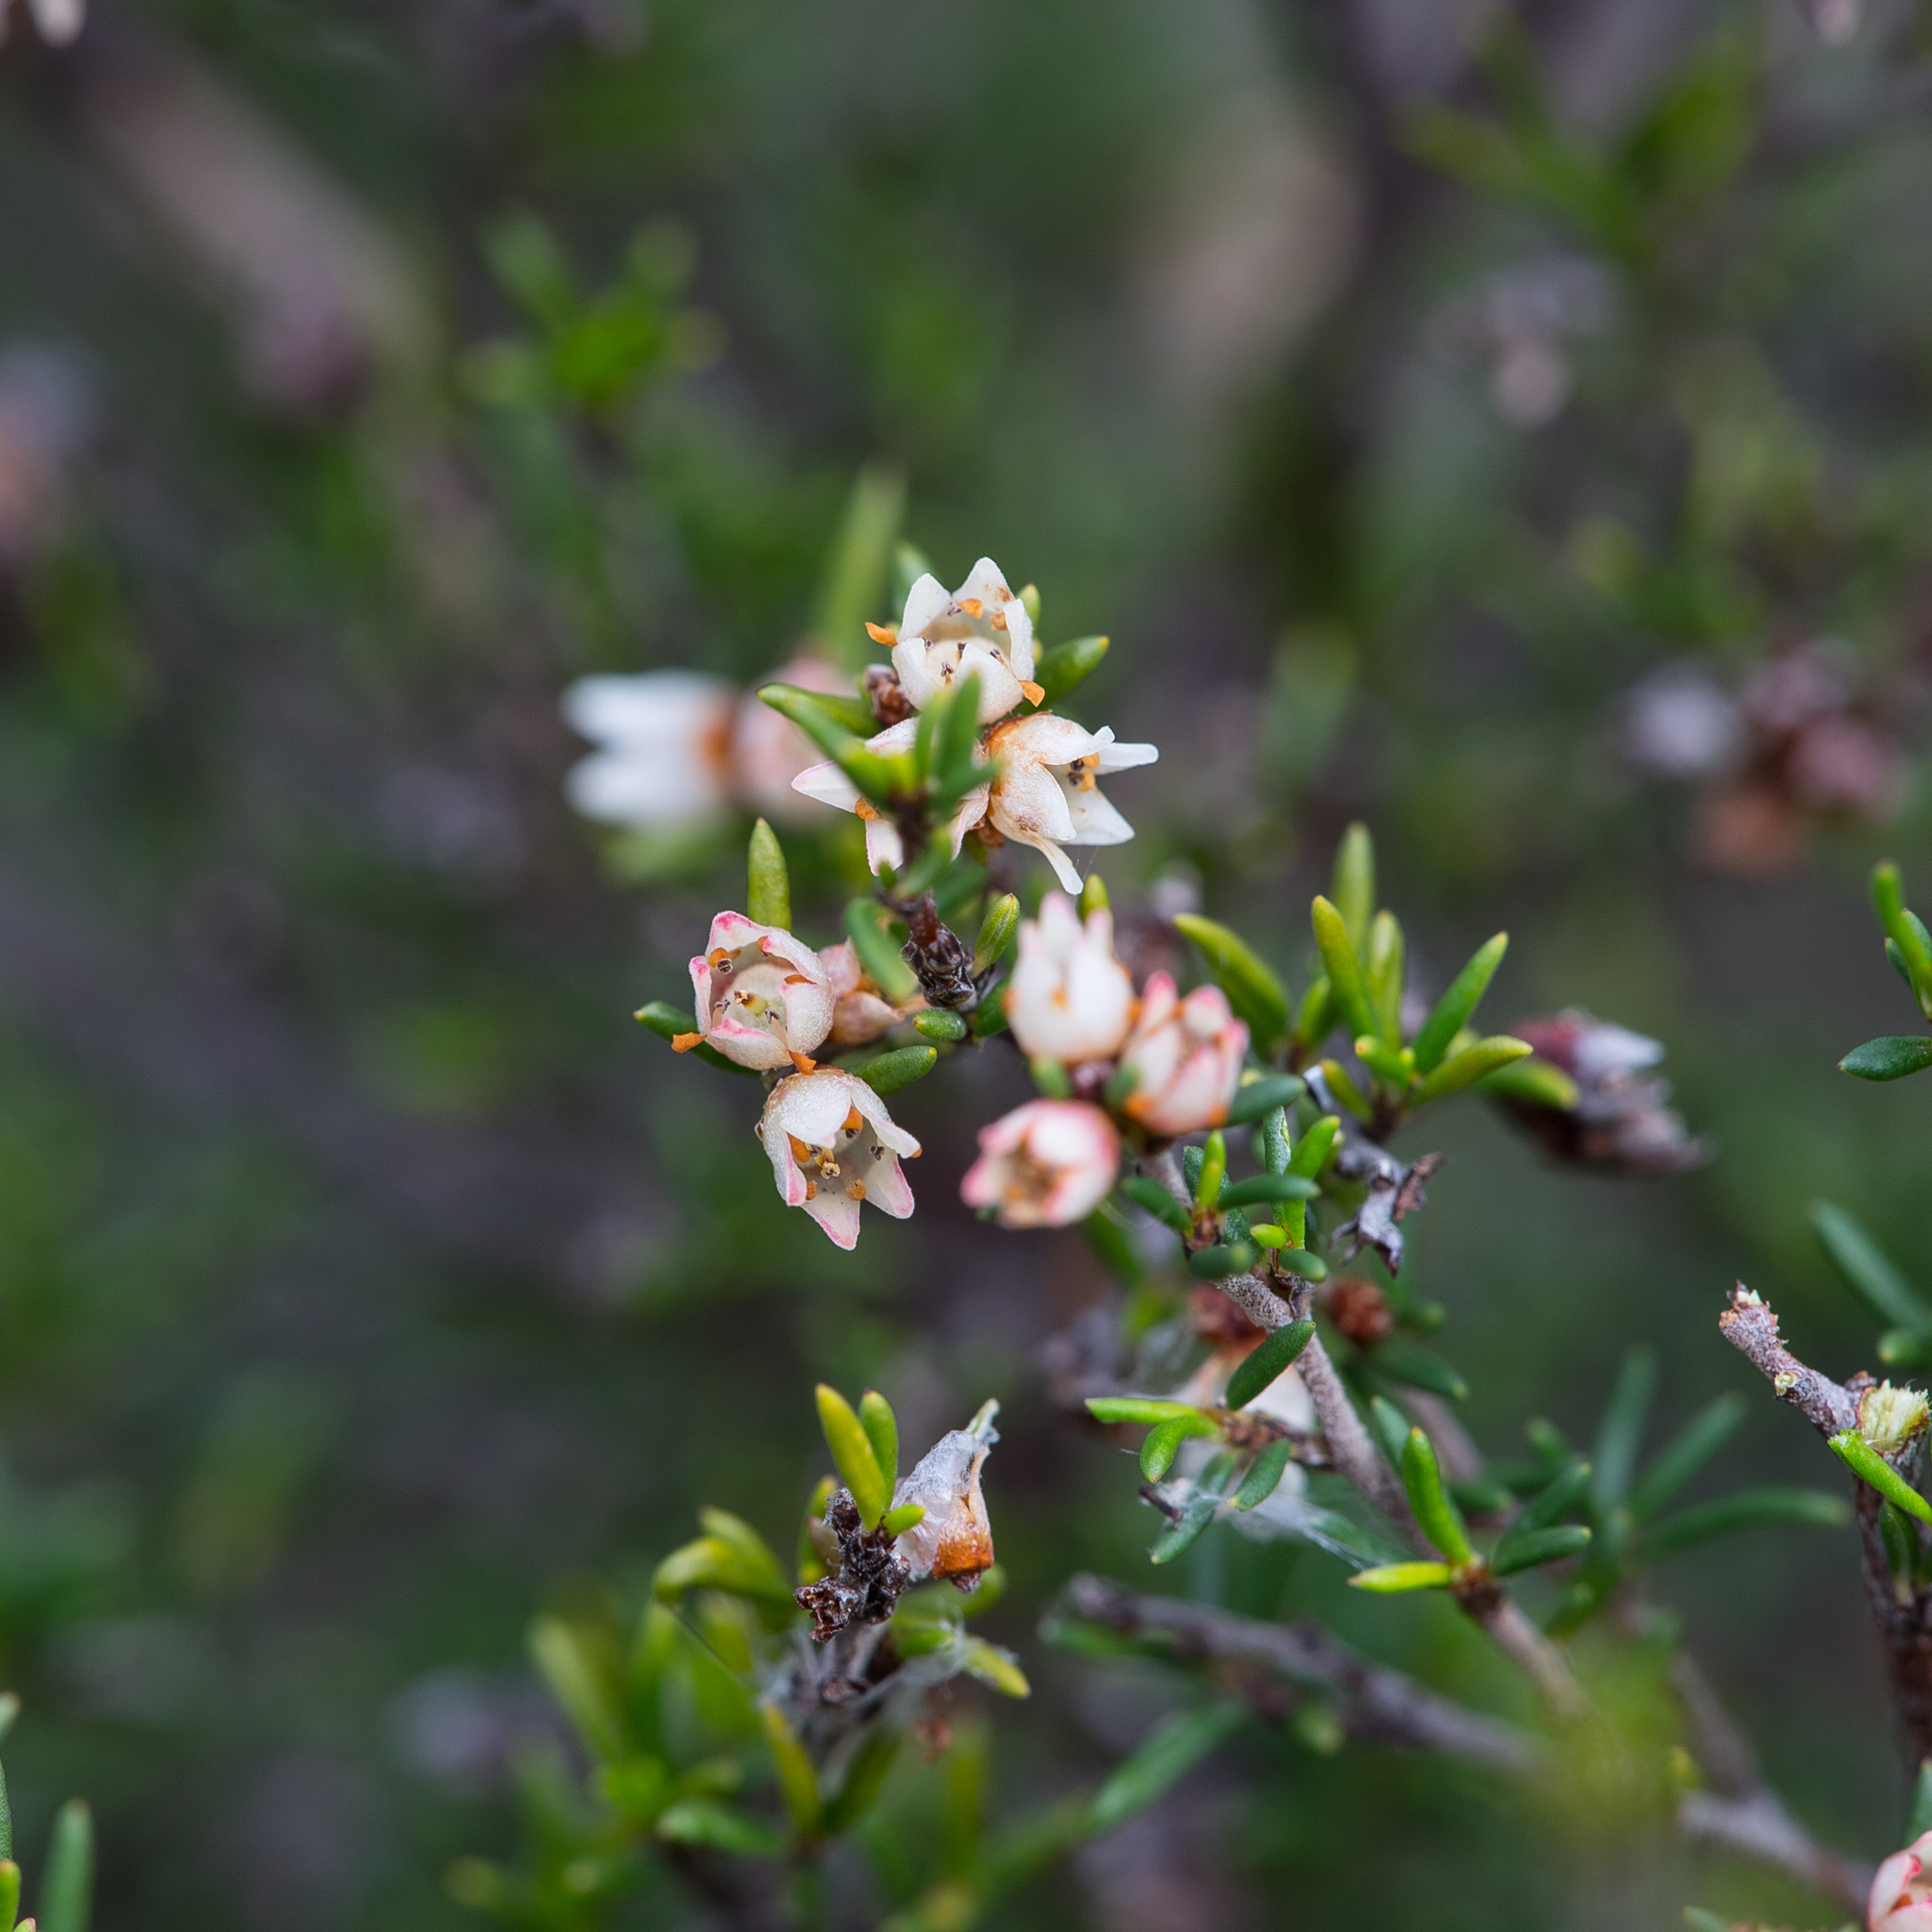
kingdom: Plantae
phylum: Tracheophyta
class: Magnoliopsida
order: Rosales
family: Rhamnaceae
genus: Cryptandra
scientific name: Cryptandra tomentosa
